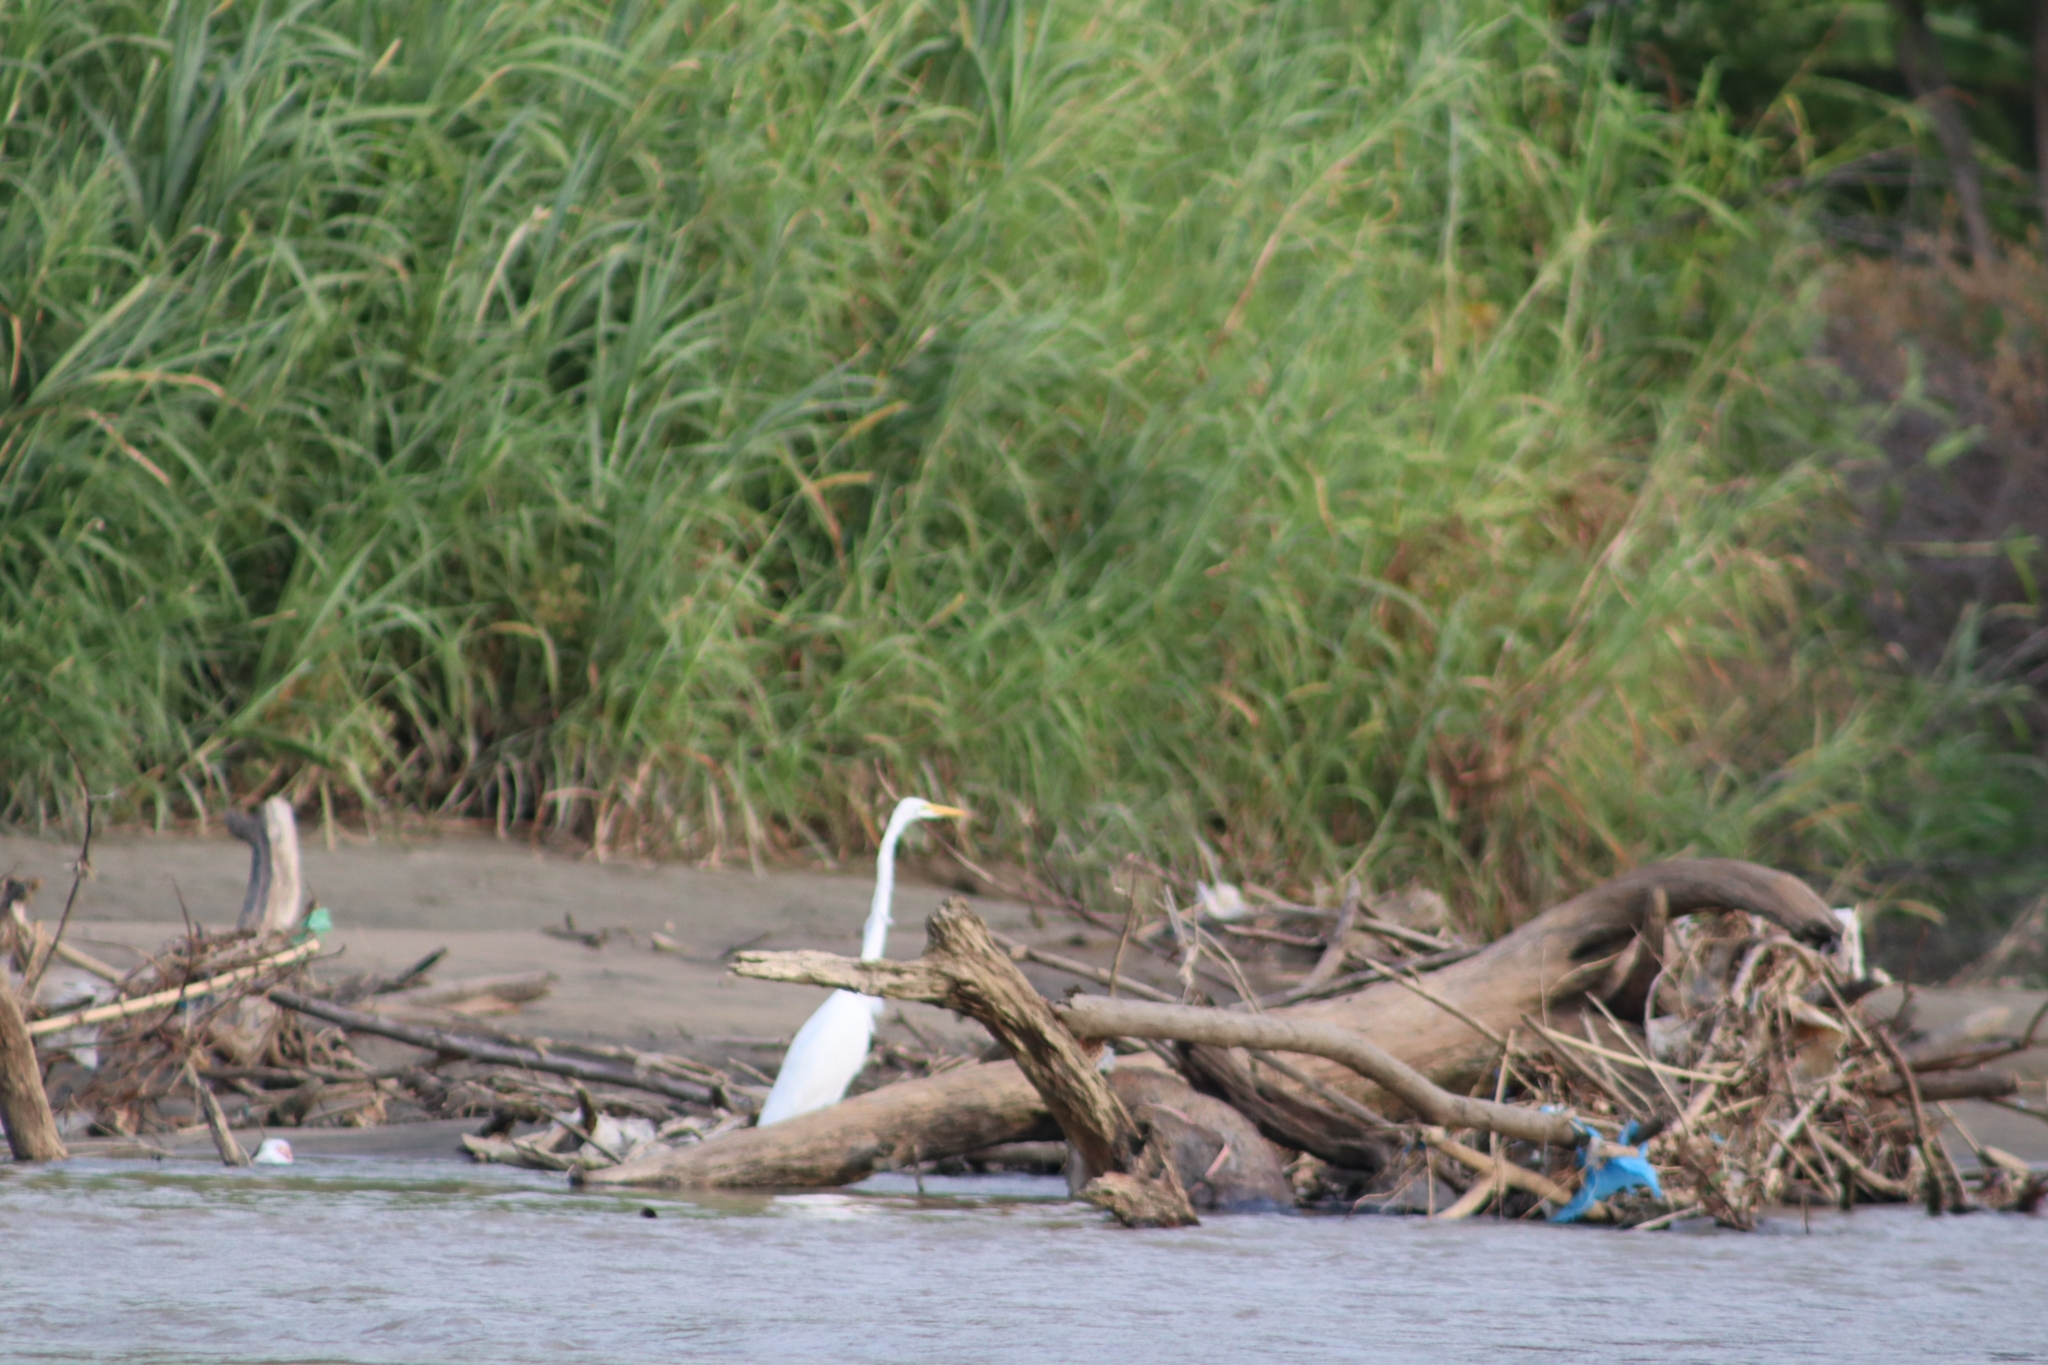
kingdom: Animalia
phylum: Chordata
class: Aves
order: Pelecaniformes
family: Ardeidae
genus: Ardea
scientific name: Ardea alba
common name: Great egret
